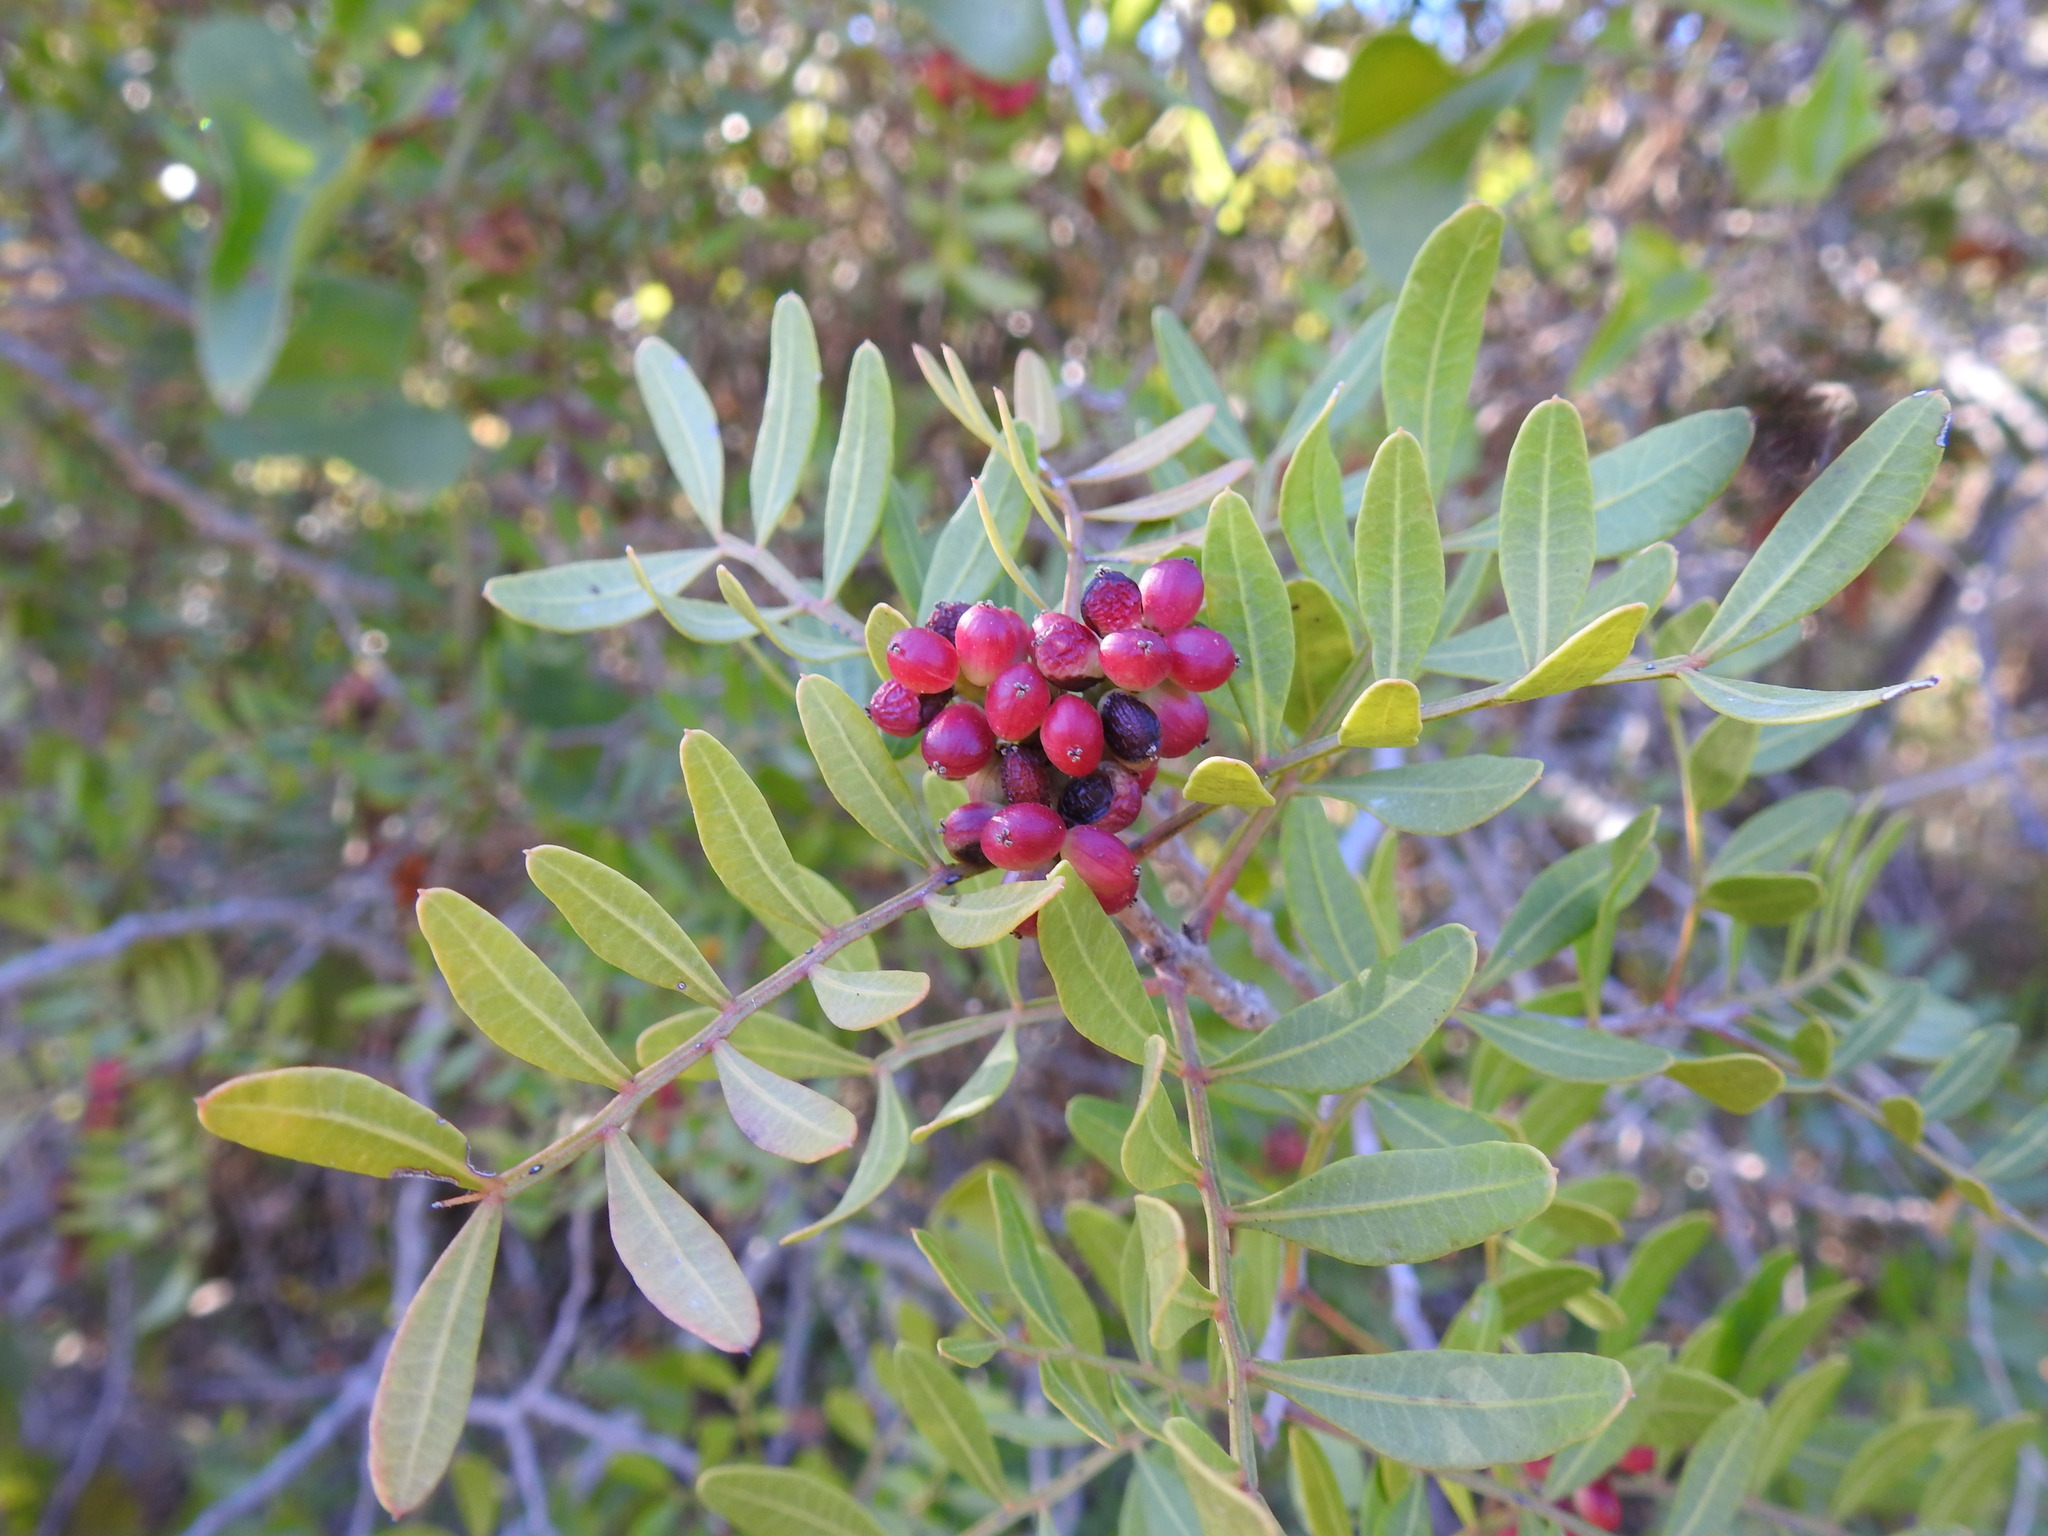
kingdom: Plantae
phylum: Tracheophyta
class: Magnoliopsida
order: Sapindales
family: Anacardiaceae
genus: Pistacia
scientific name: Pistacia lentiscus
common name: Lentisk
